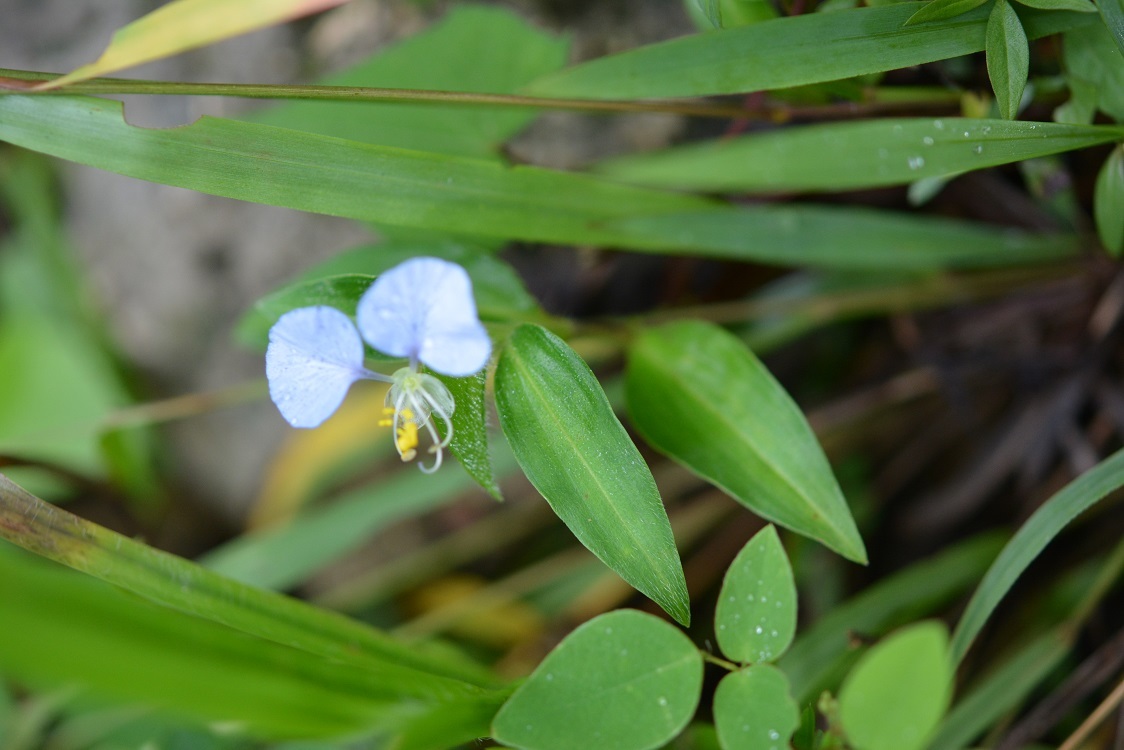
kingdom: Plantae
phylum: Tracheophyta
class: Liliopsida
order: Commelinales
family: Commelinaceae
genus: Commelina
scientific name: Commelina erecta
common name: Blousel blommetjie
